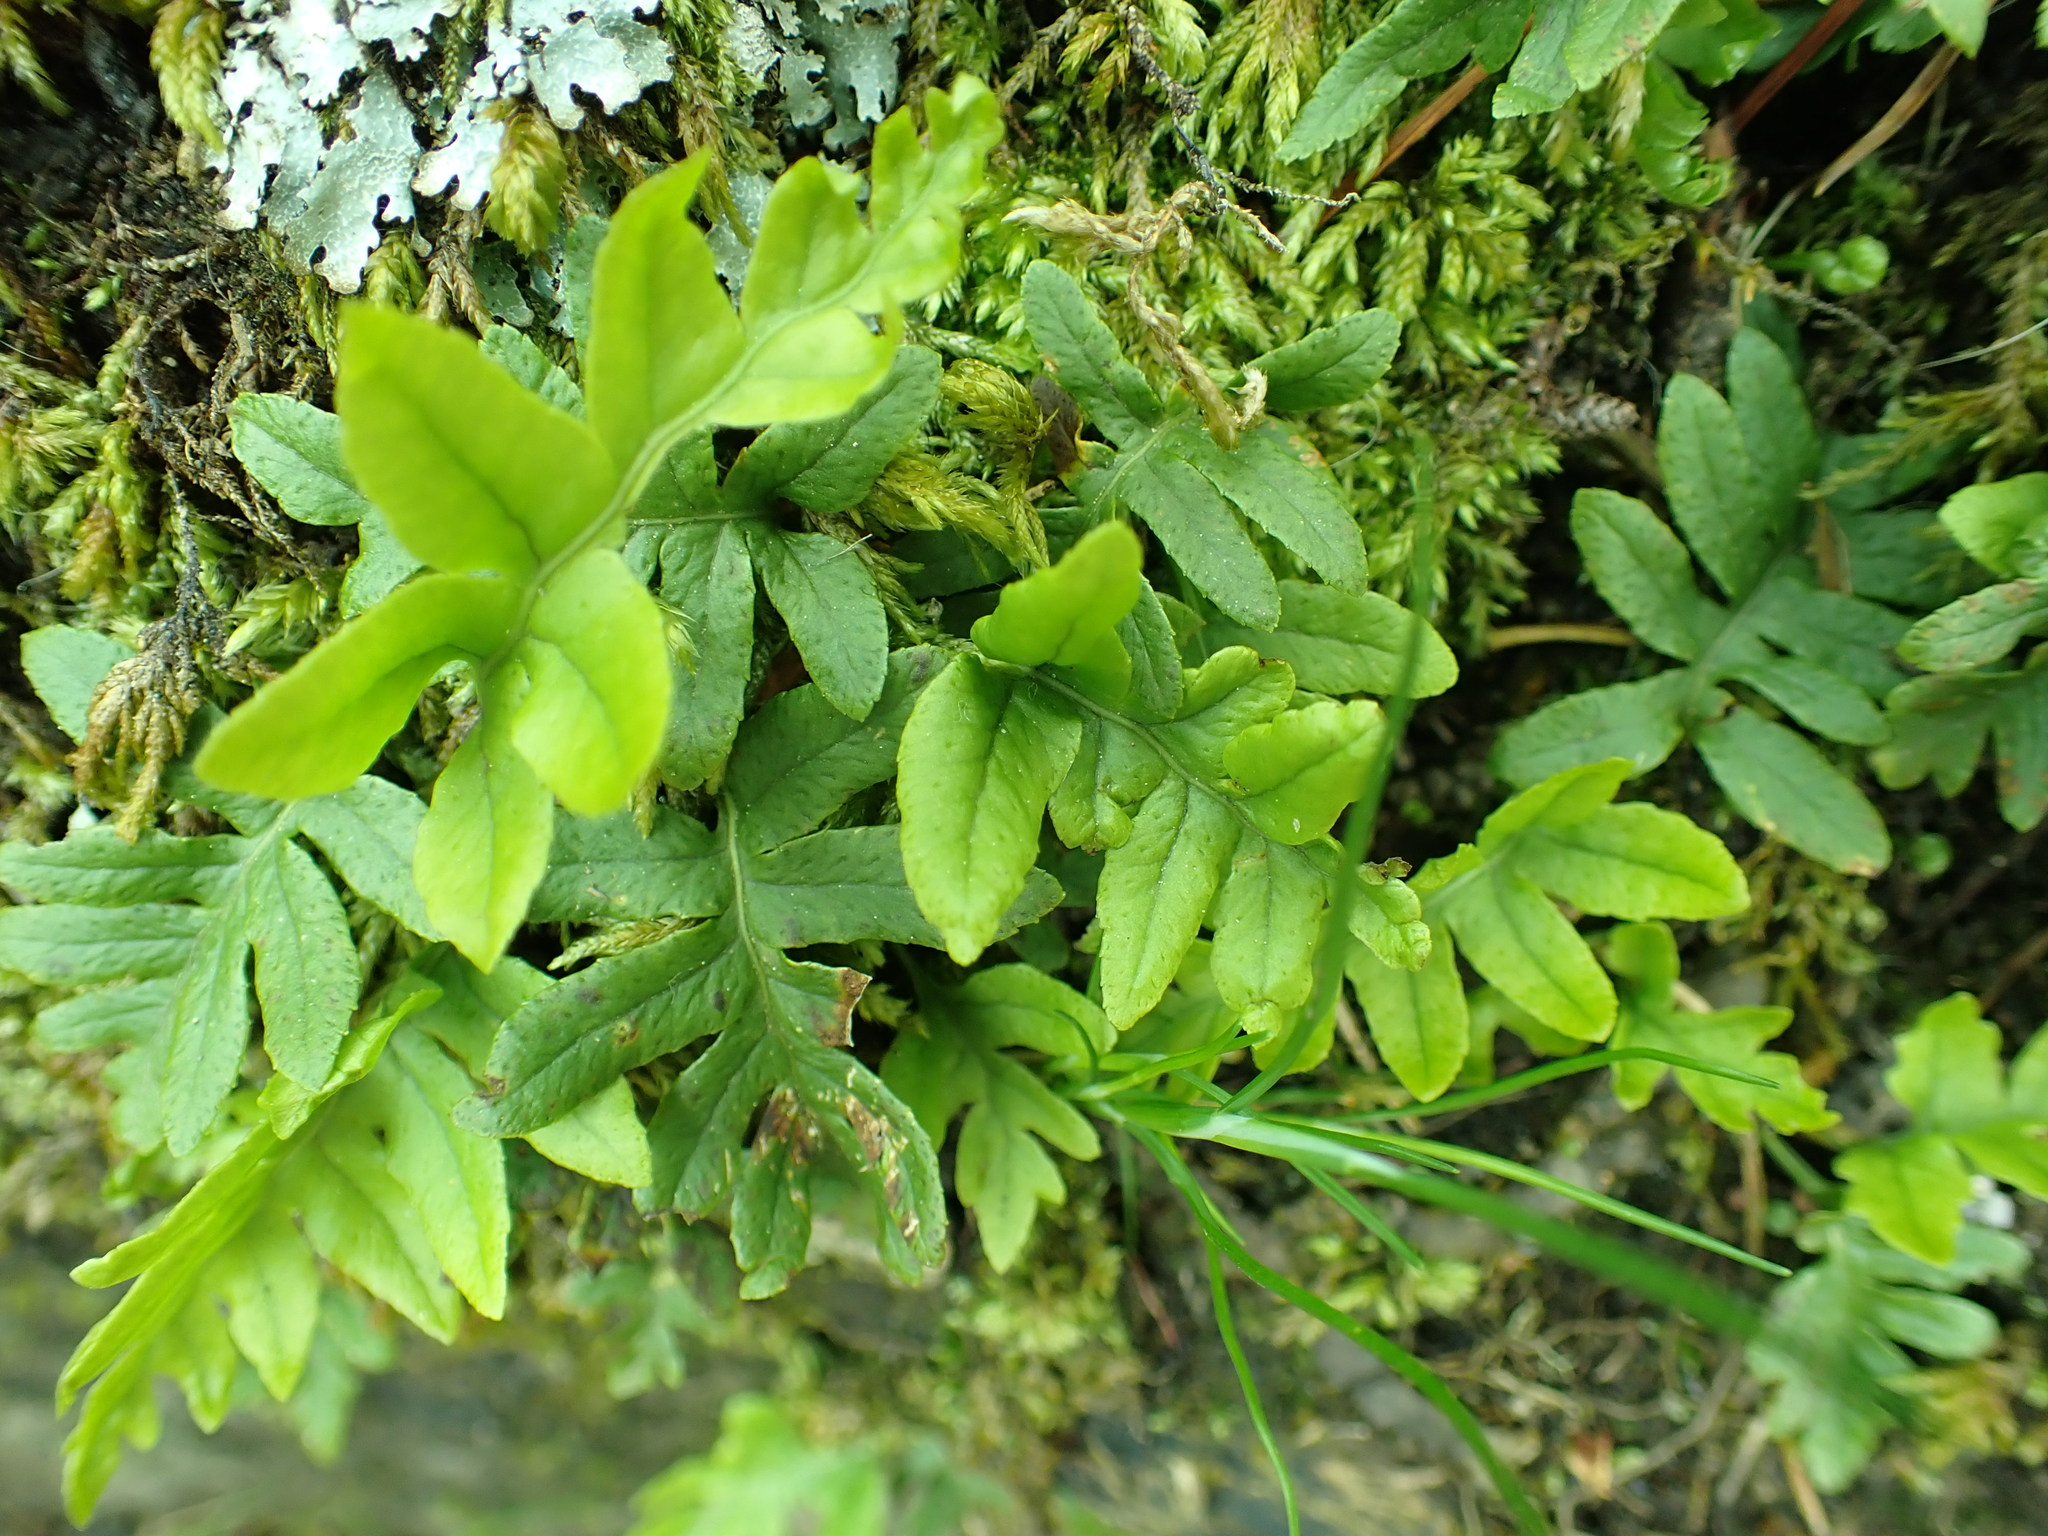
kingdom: Plantae
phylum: Tracheophyta
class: Polypodiopsida
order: Polypodiales
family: Polypodiaceae
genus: Polypodium
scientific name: Polypodium glycyrrhiza
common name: Licorice fern
